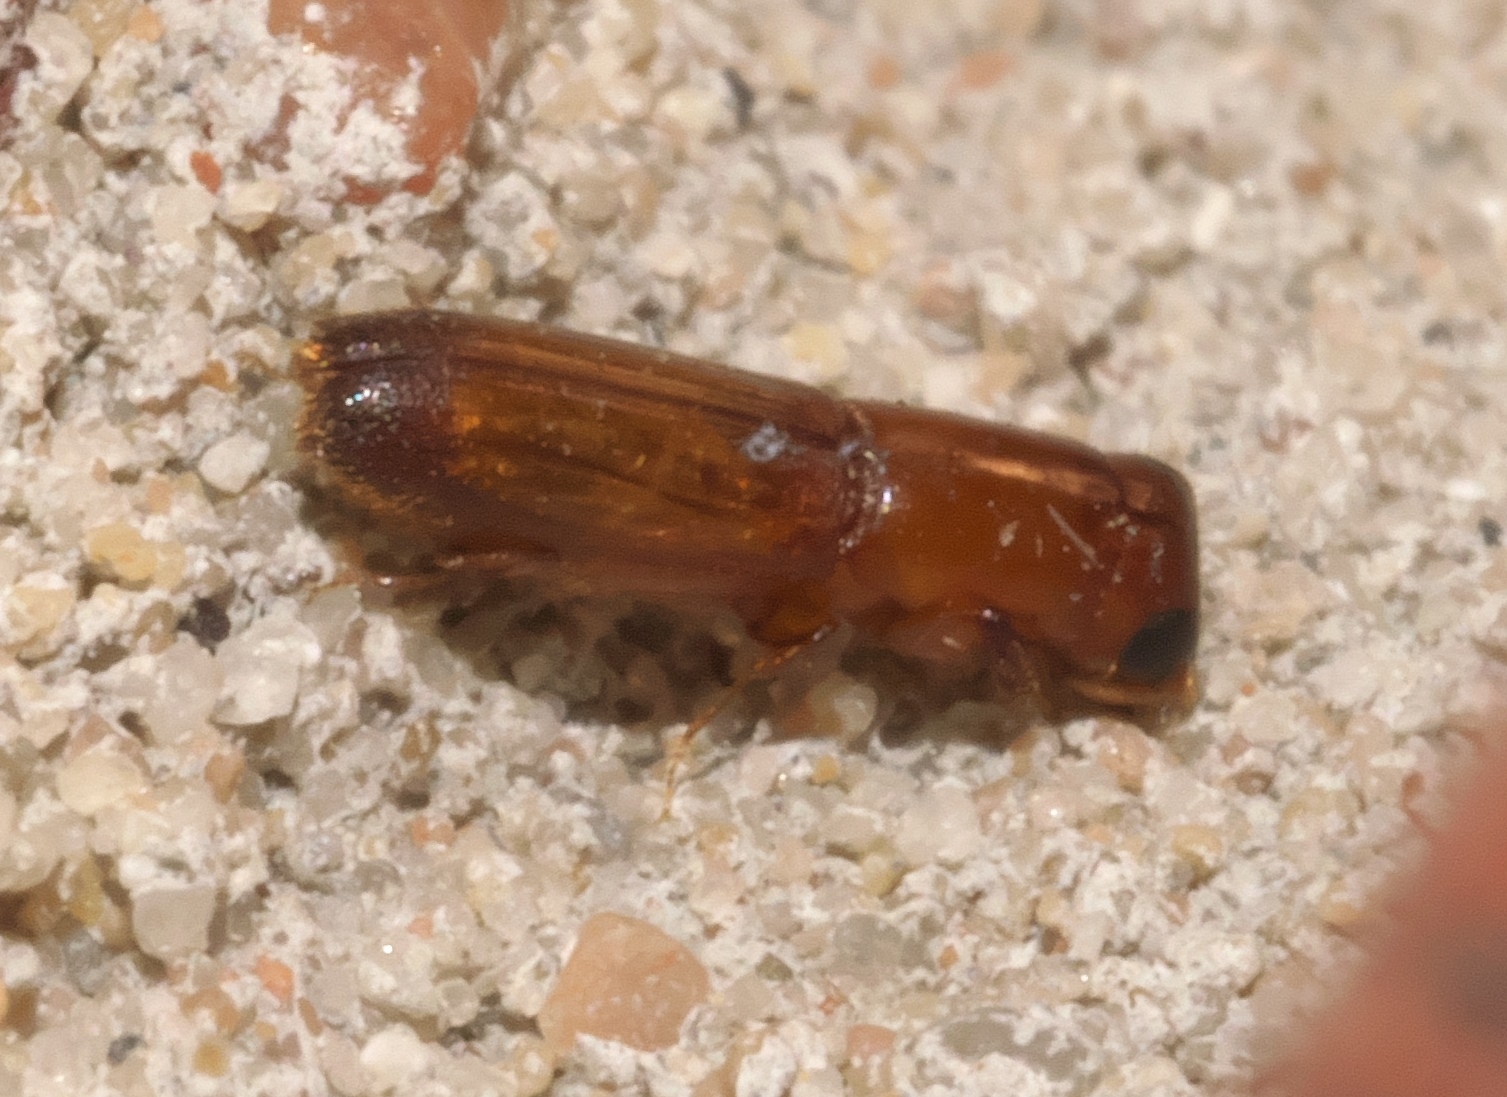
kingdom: Animalia
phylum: Arthropoda
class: Insecta
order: Coleoptera
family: Curculionidae
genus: Euplatypus
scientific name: Euplatypus compositus
